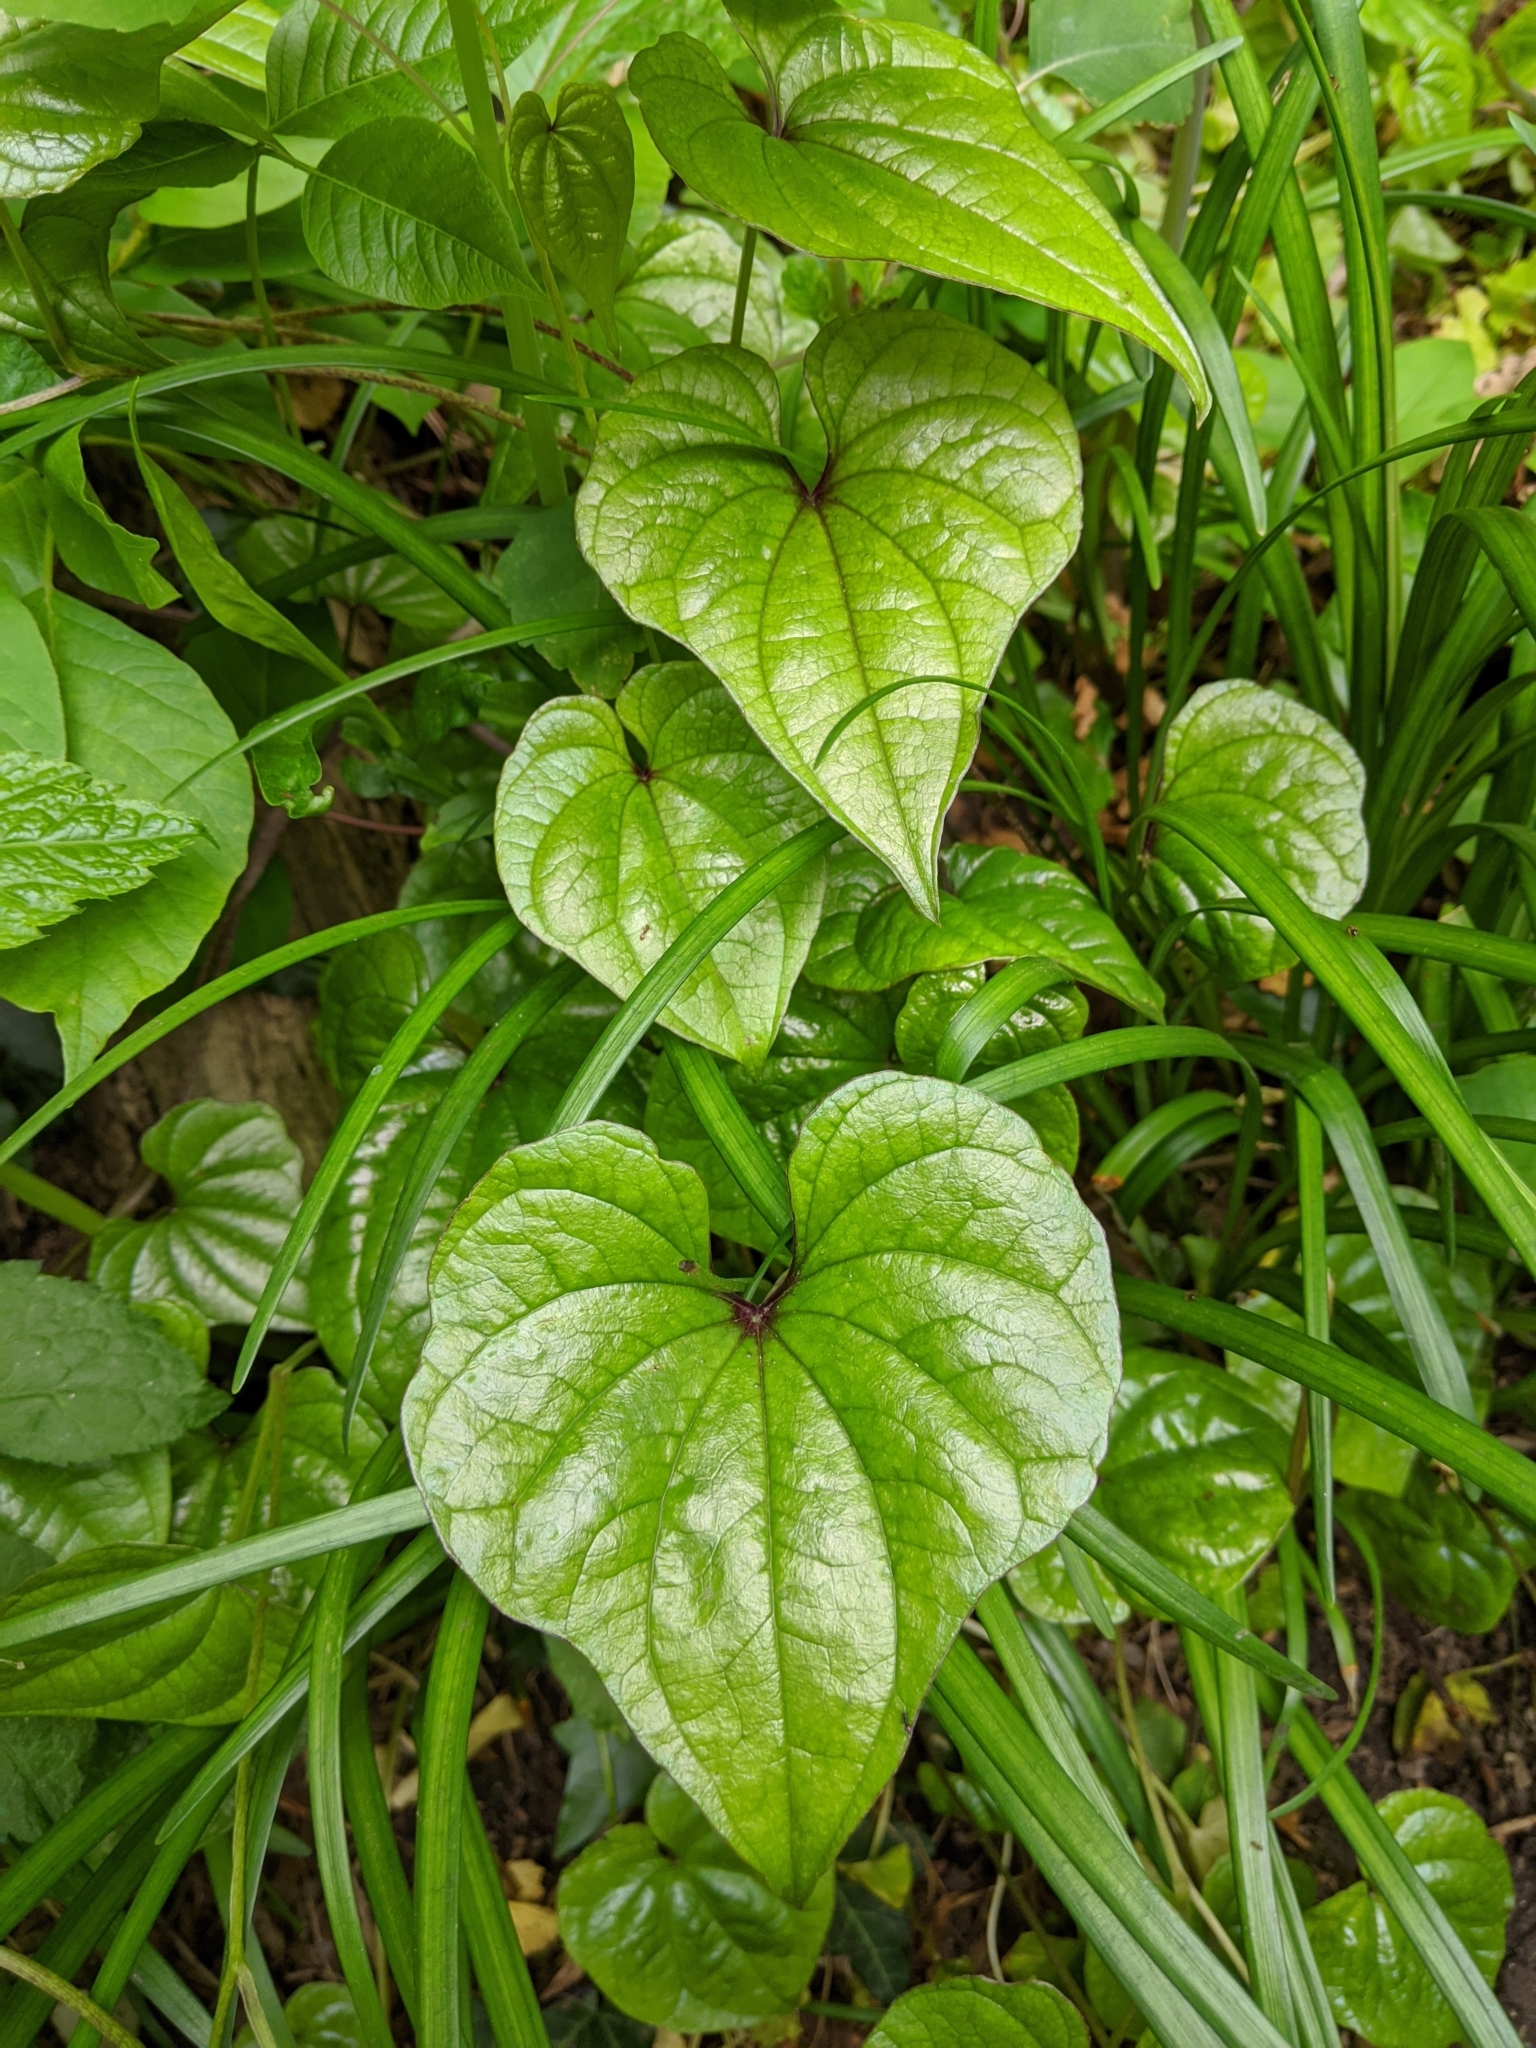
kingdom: Plantae
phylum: Tracheophyta
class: Liliopsida
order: Dioscoreales
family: Dioscoreaceae
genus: Dioscorea
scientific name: Dioscorea polystachya
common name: Chinese yam
